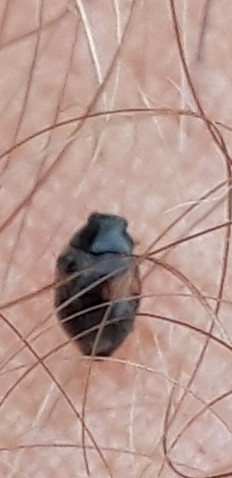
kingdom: Animalia
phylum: Arthropoda
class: Insecta
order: Coleoptera
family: Coccinellidae
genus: Scymnus
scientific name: Scymnus interruptus
